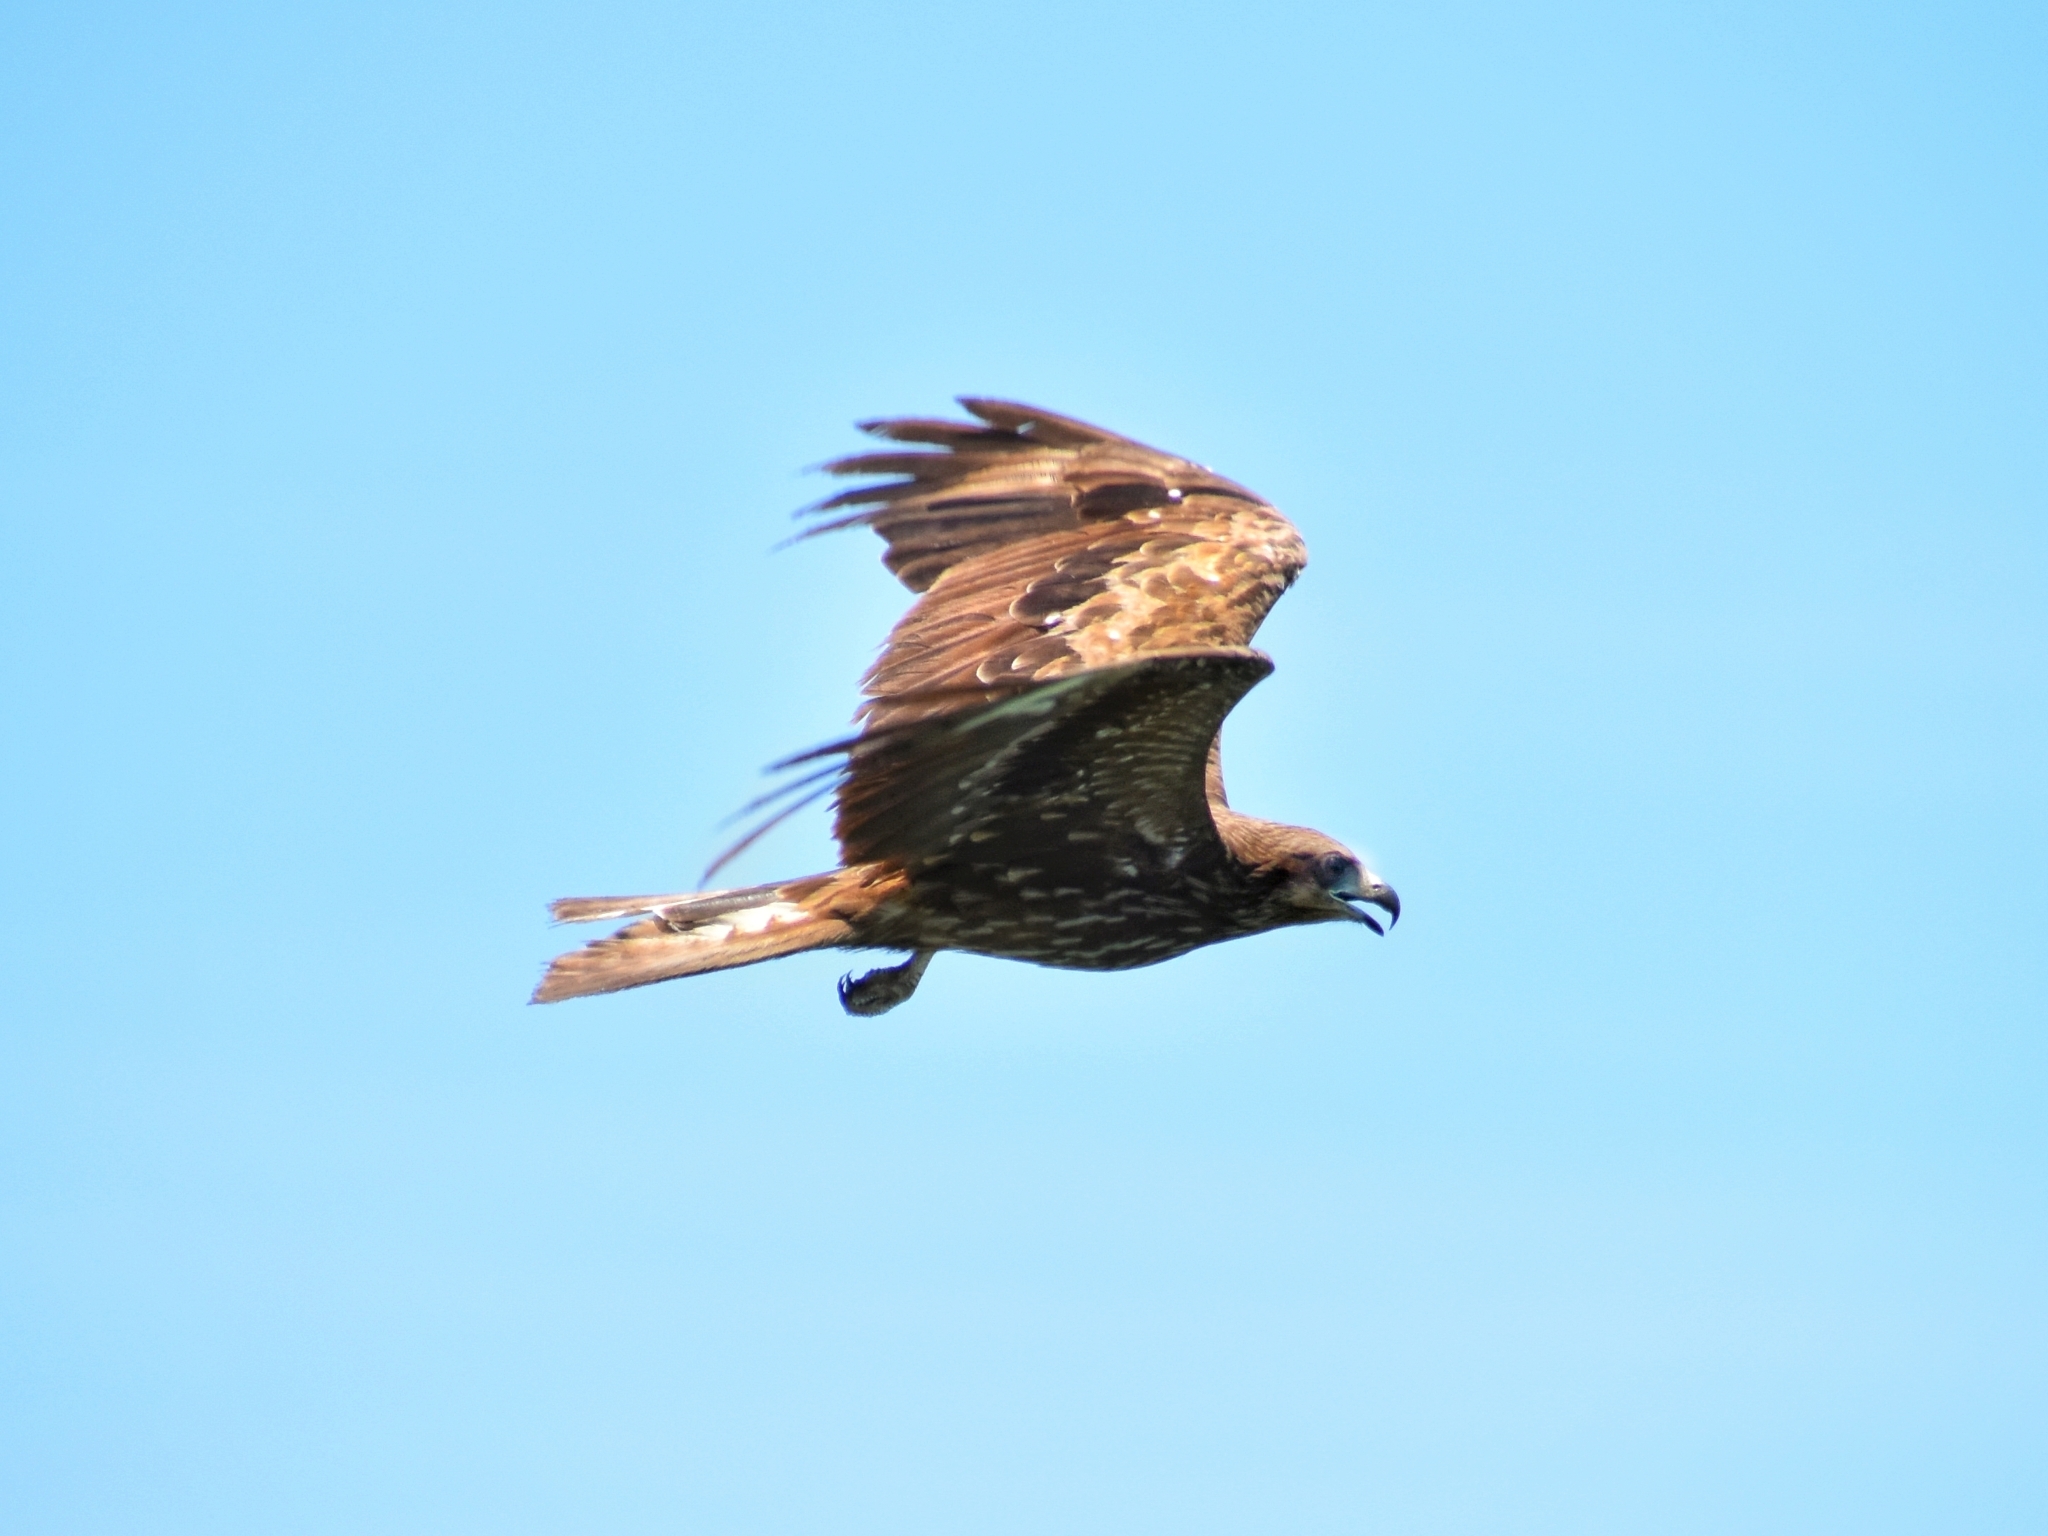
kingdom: Animalia
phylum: Chordata
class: Aves
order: Accipitriformes
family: Accipitridae
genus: Milvus
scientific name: Milvus migrans
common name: Black kite
